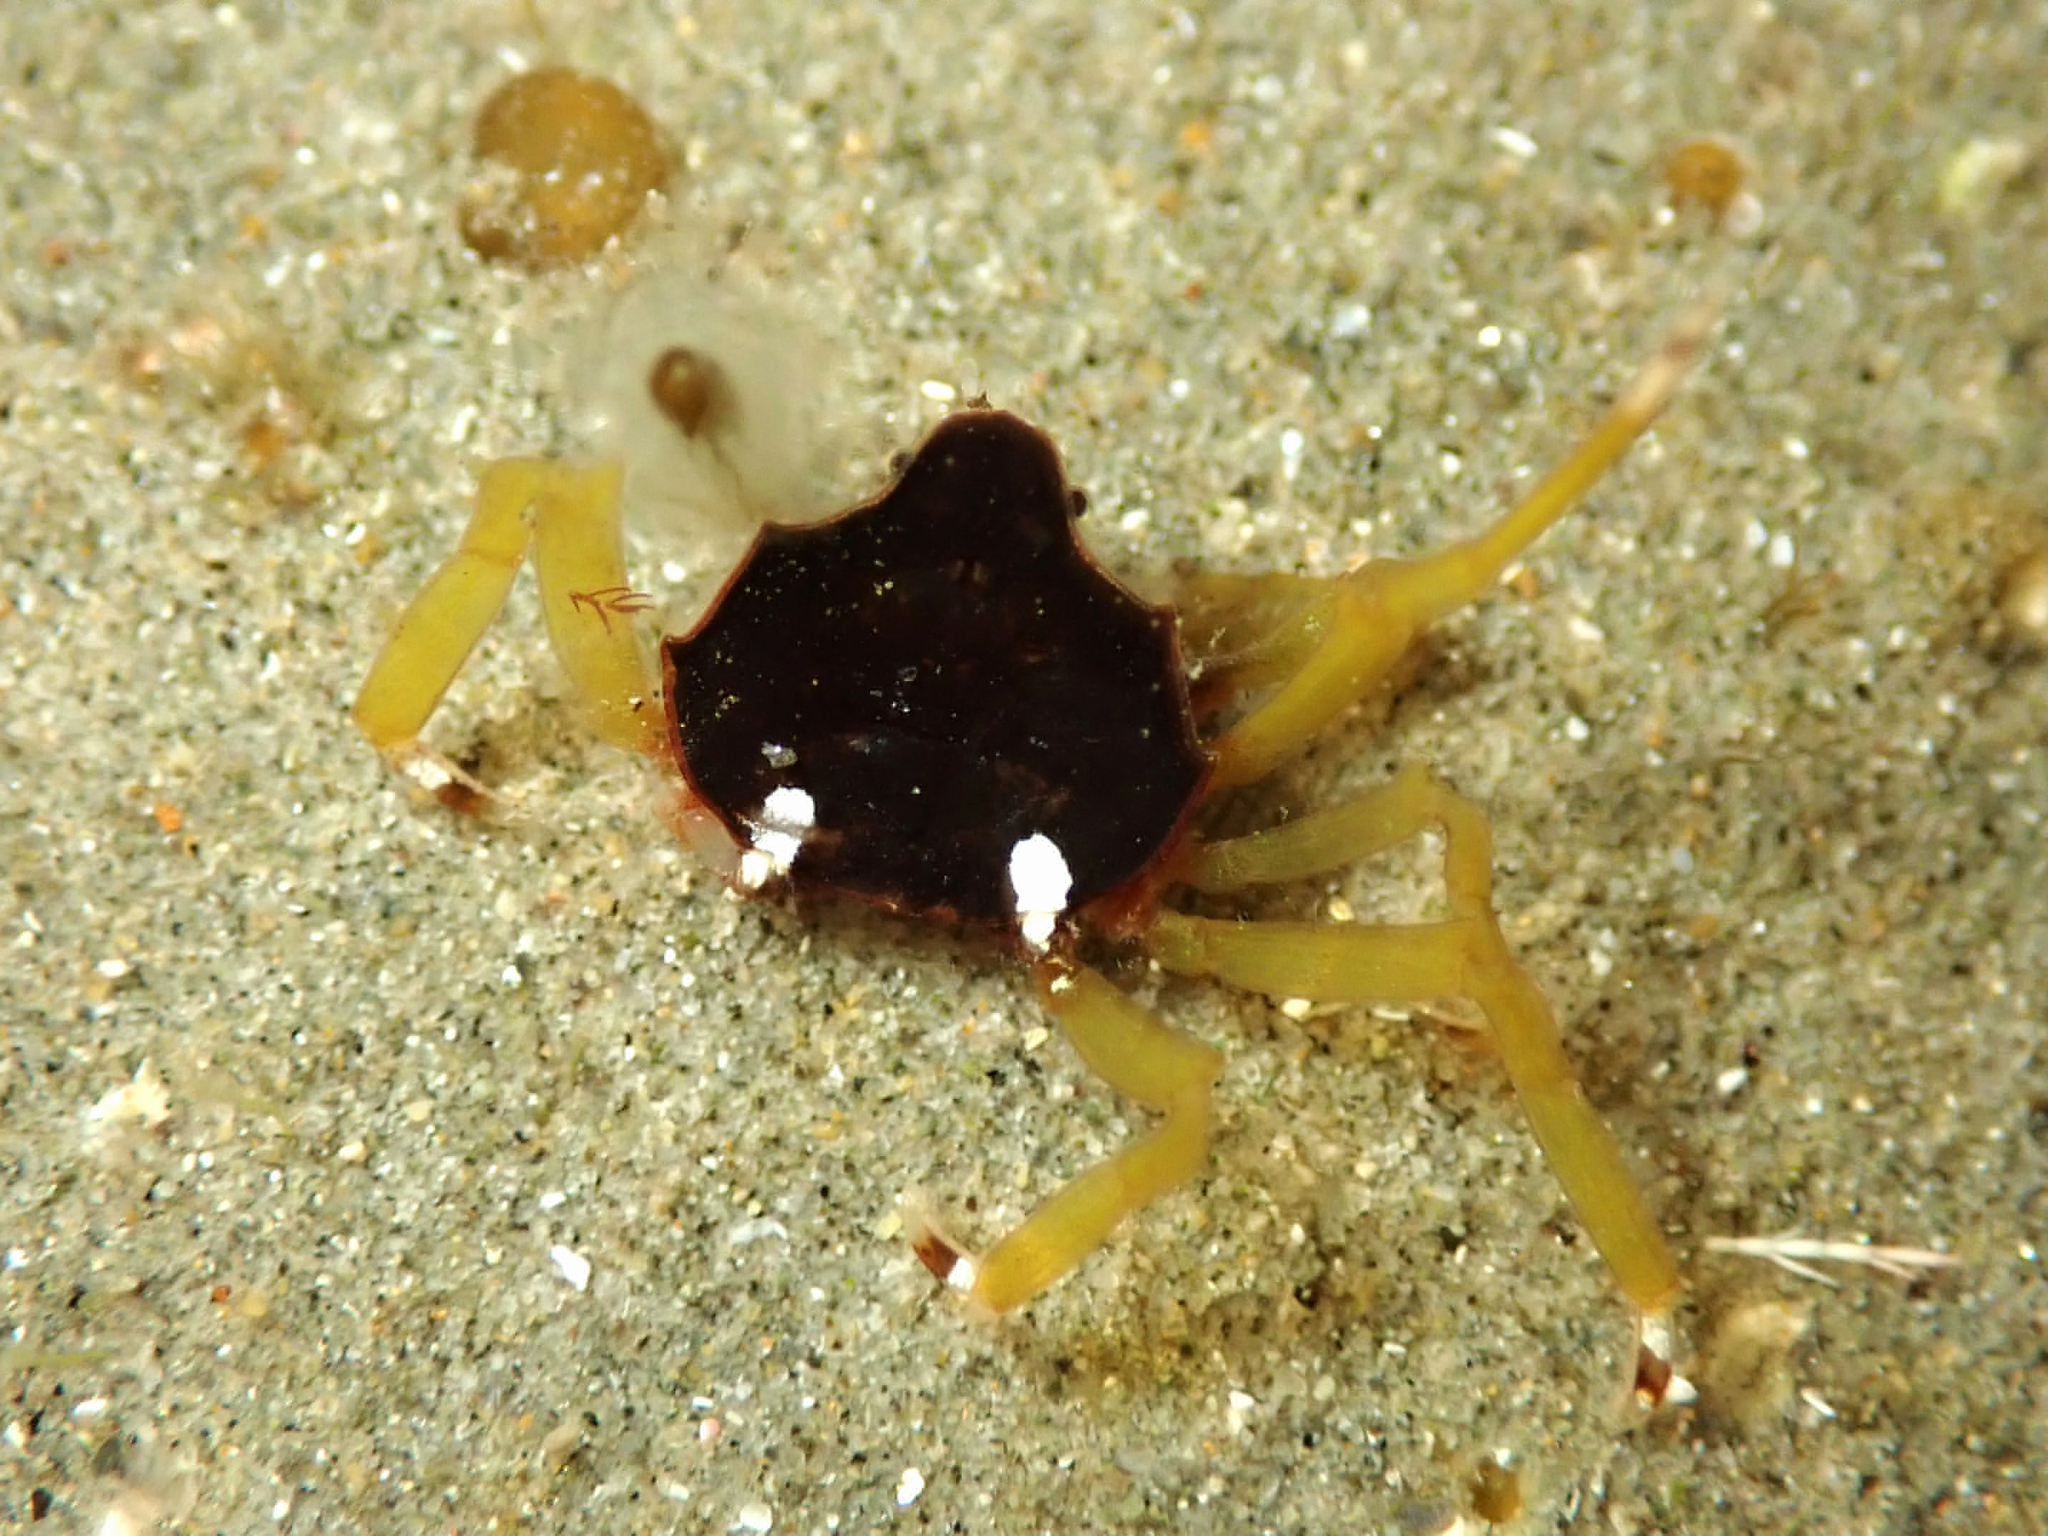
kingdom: Animalia
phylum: Arthropoda
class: Malacostraca
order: Decapoda
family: Hymenosomatidae
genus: Elamena
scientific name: Elamena producta
